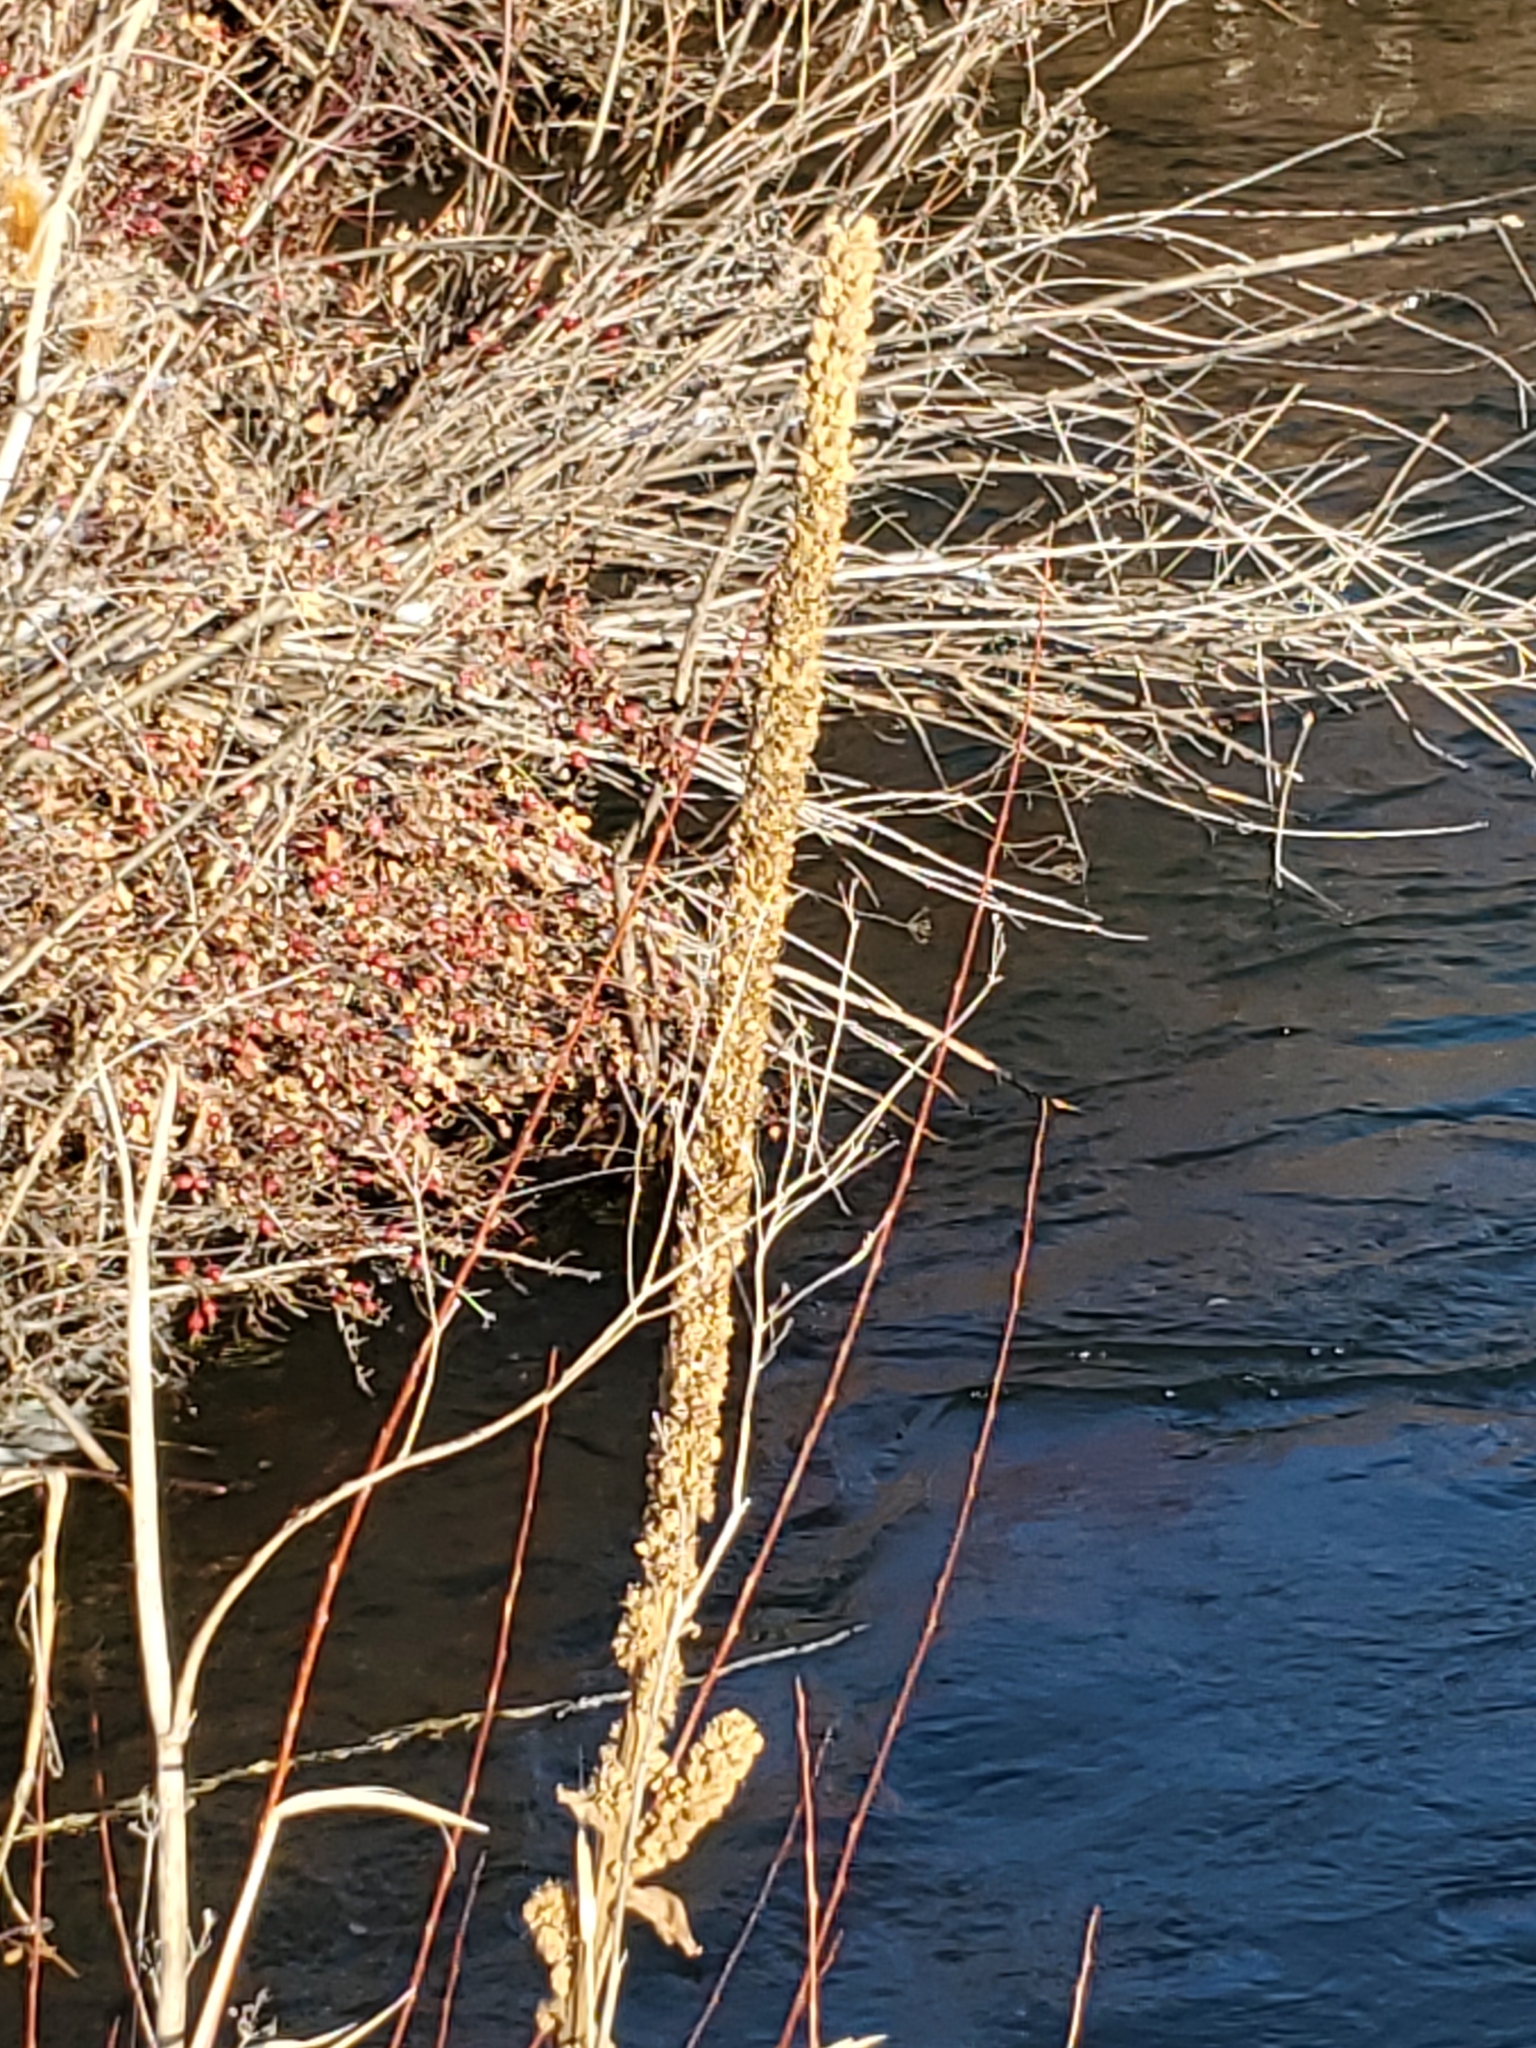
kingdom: Plantae
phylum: Tracheophyta
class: Magnoliopsida
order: Lamiales
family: Scrophulariaceae
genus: Verbascum
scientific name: Verbascum thapsus
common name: Common mullein
